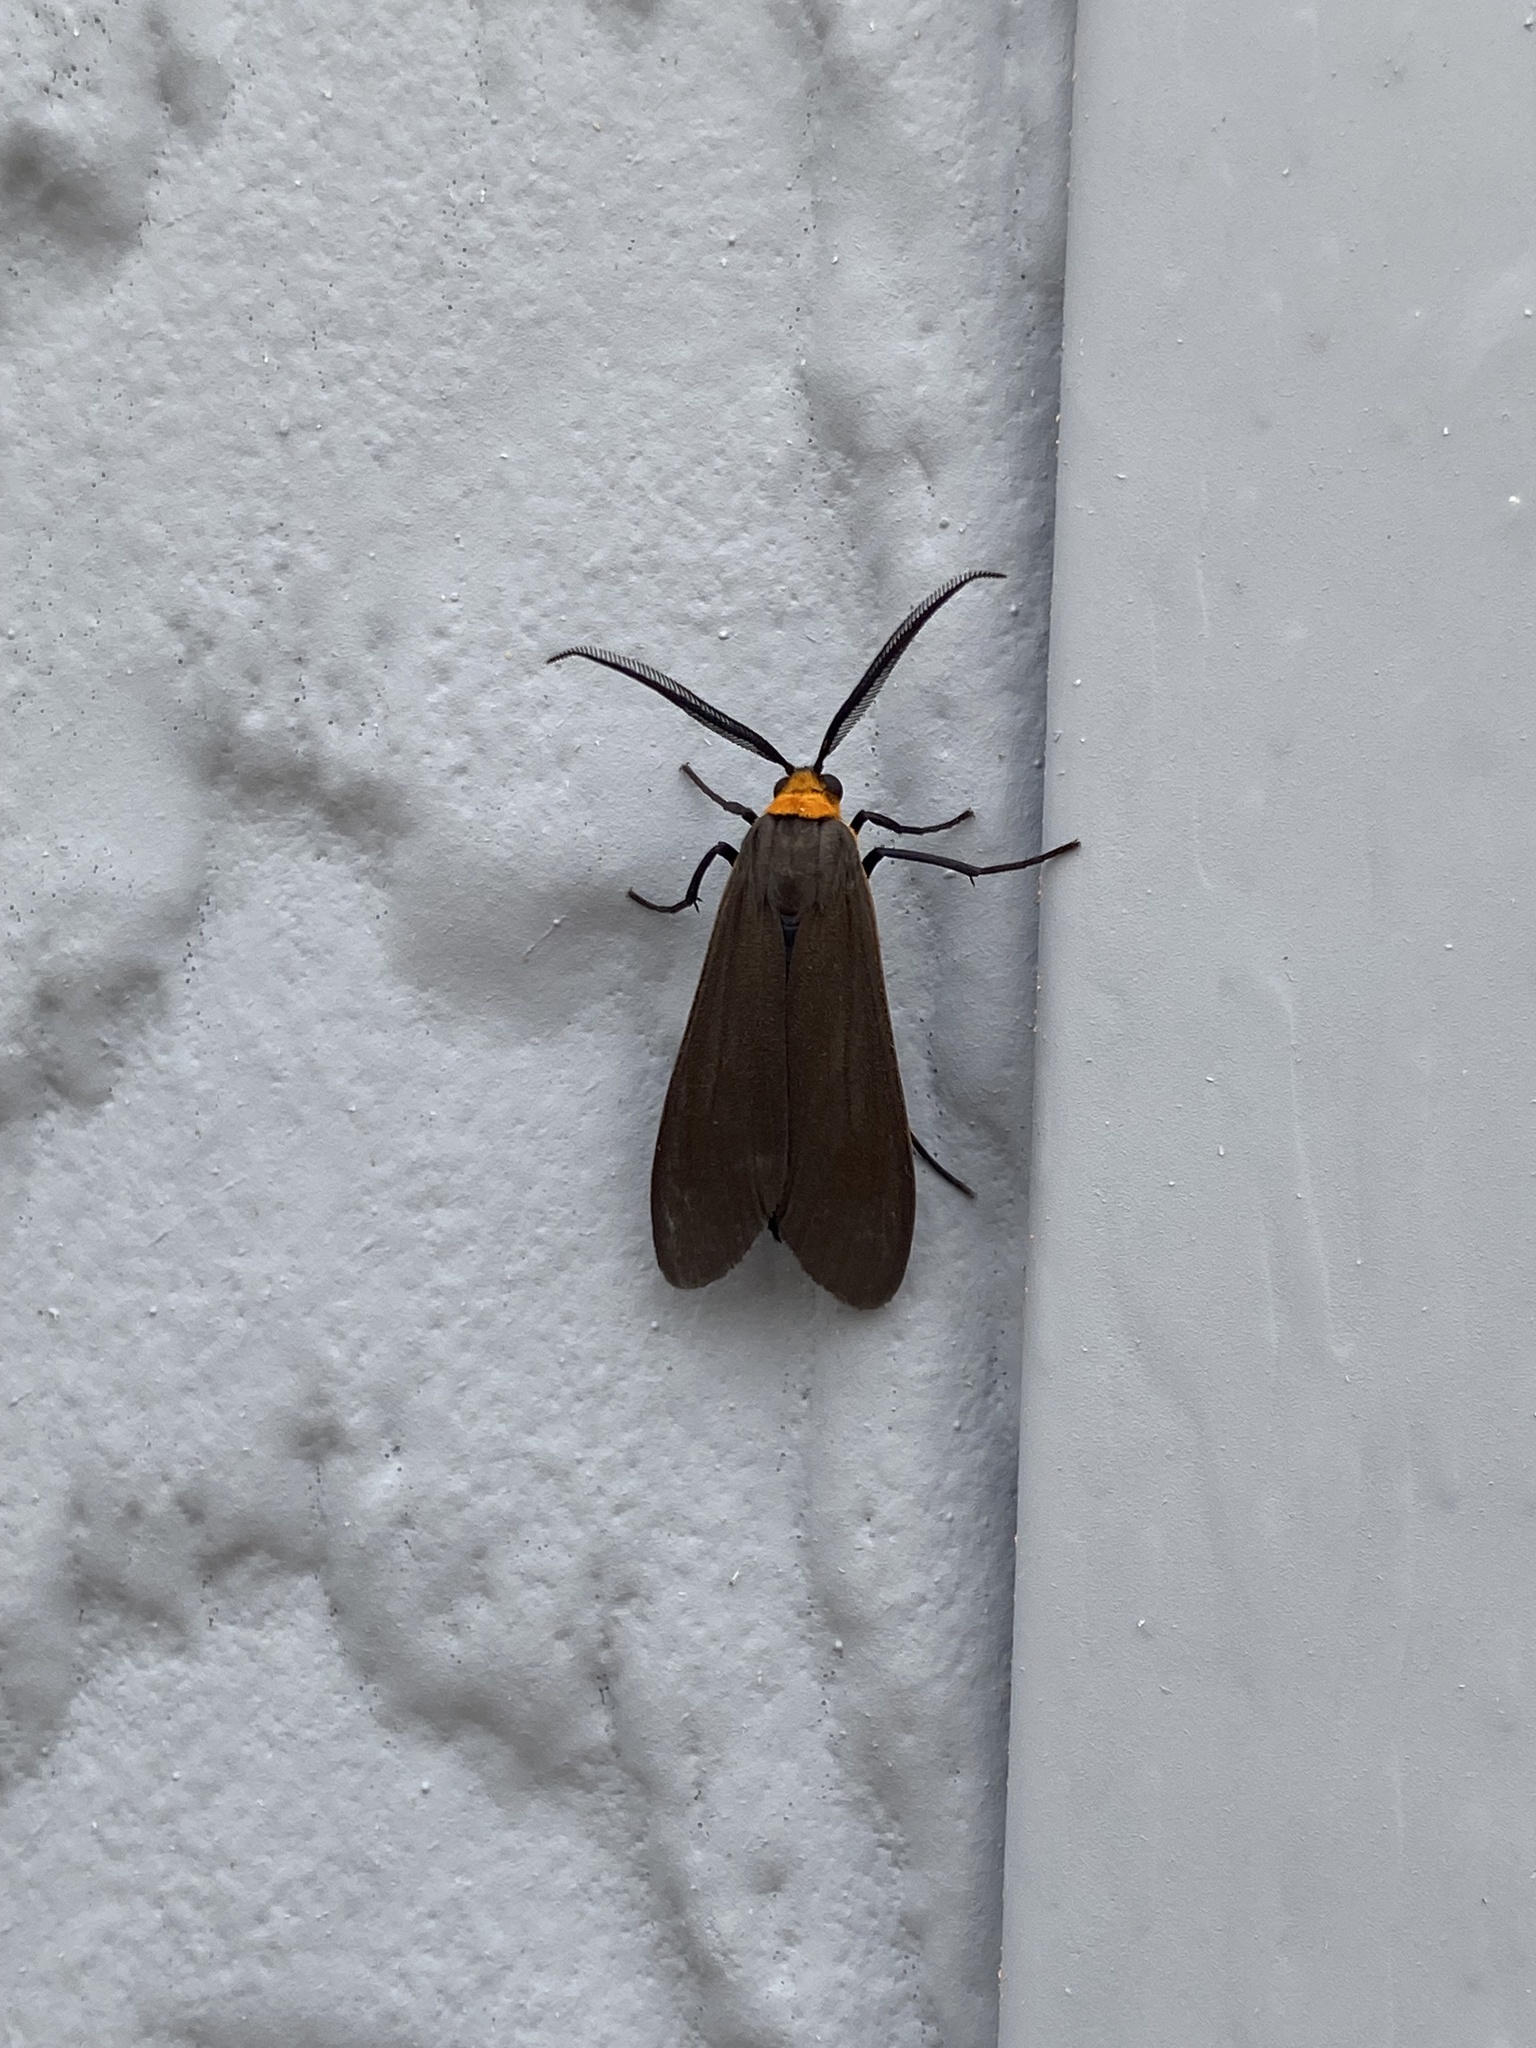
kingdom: Animalia
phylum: Arthropoda
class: Insecta
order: Lepidoptera
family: Erebidae
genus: Cisseps
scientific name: Cisseps fulvicollis
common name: Yellow-collared scape moth
